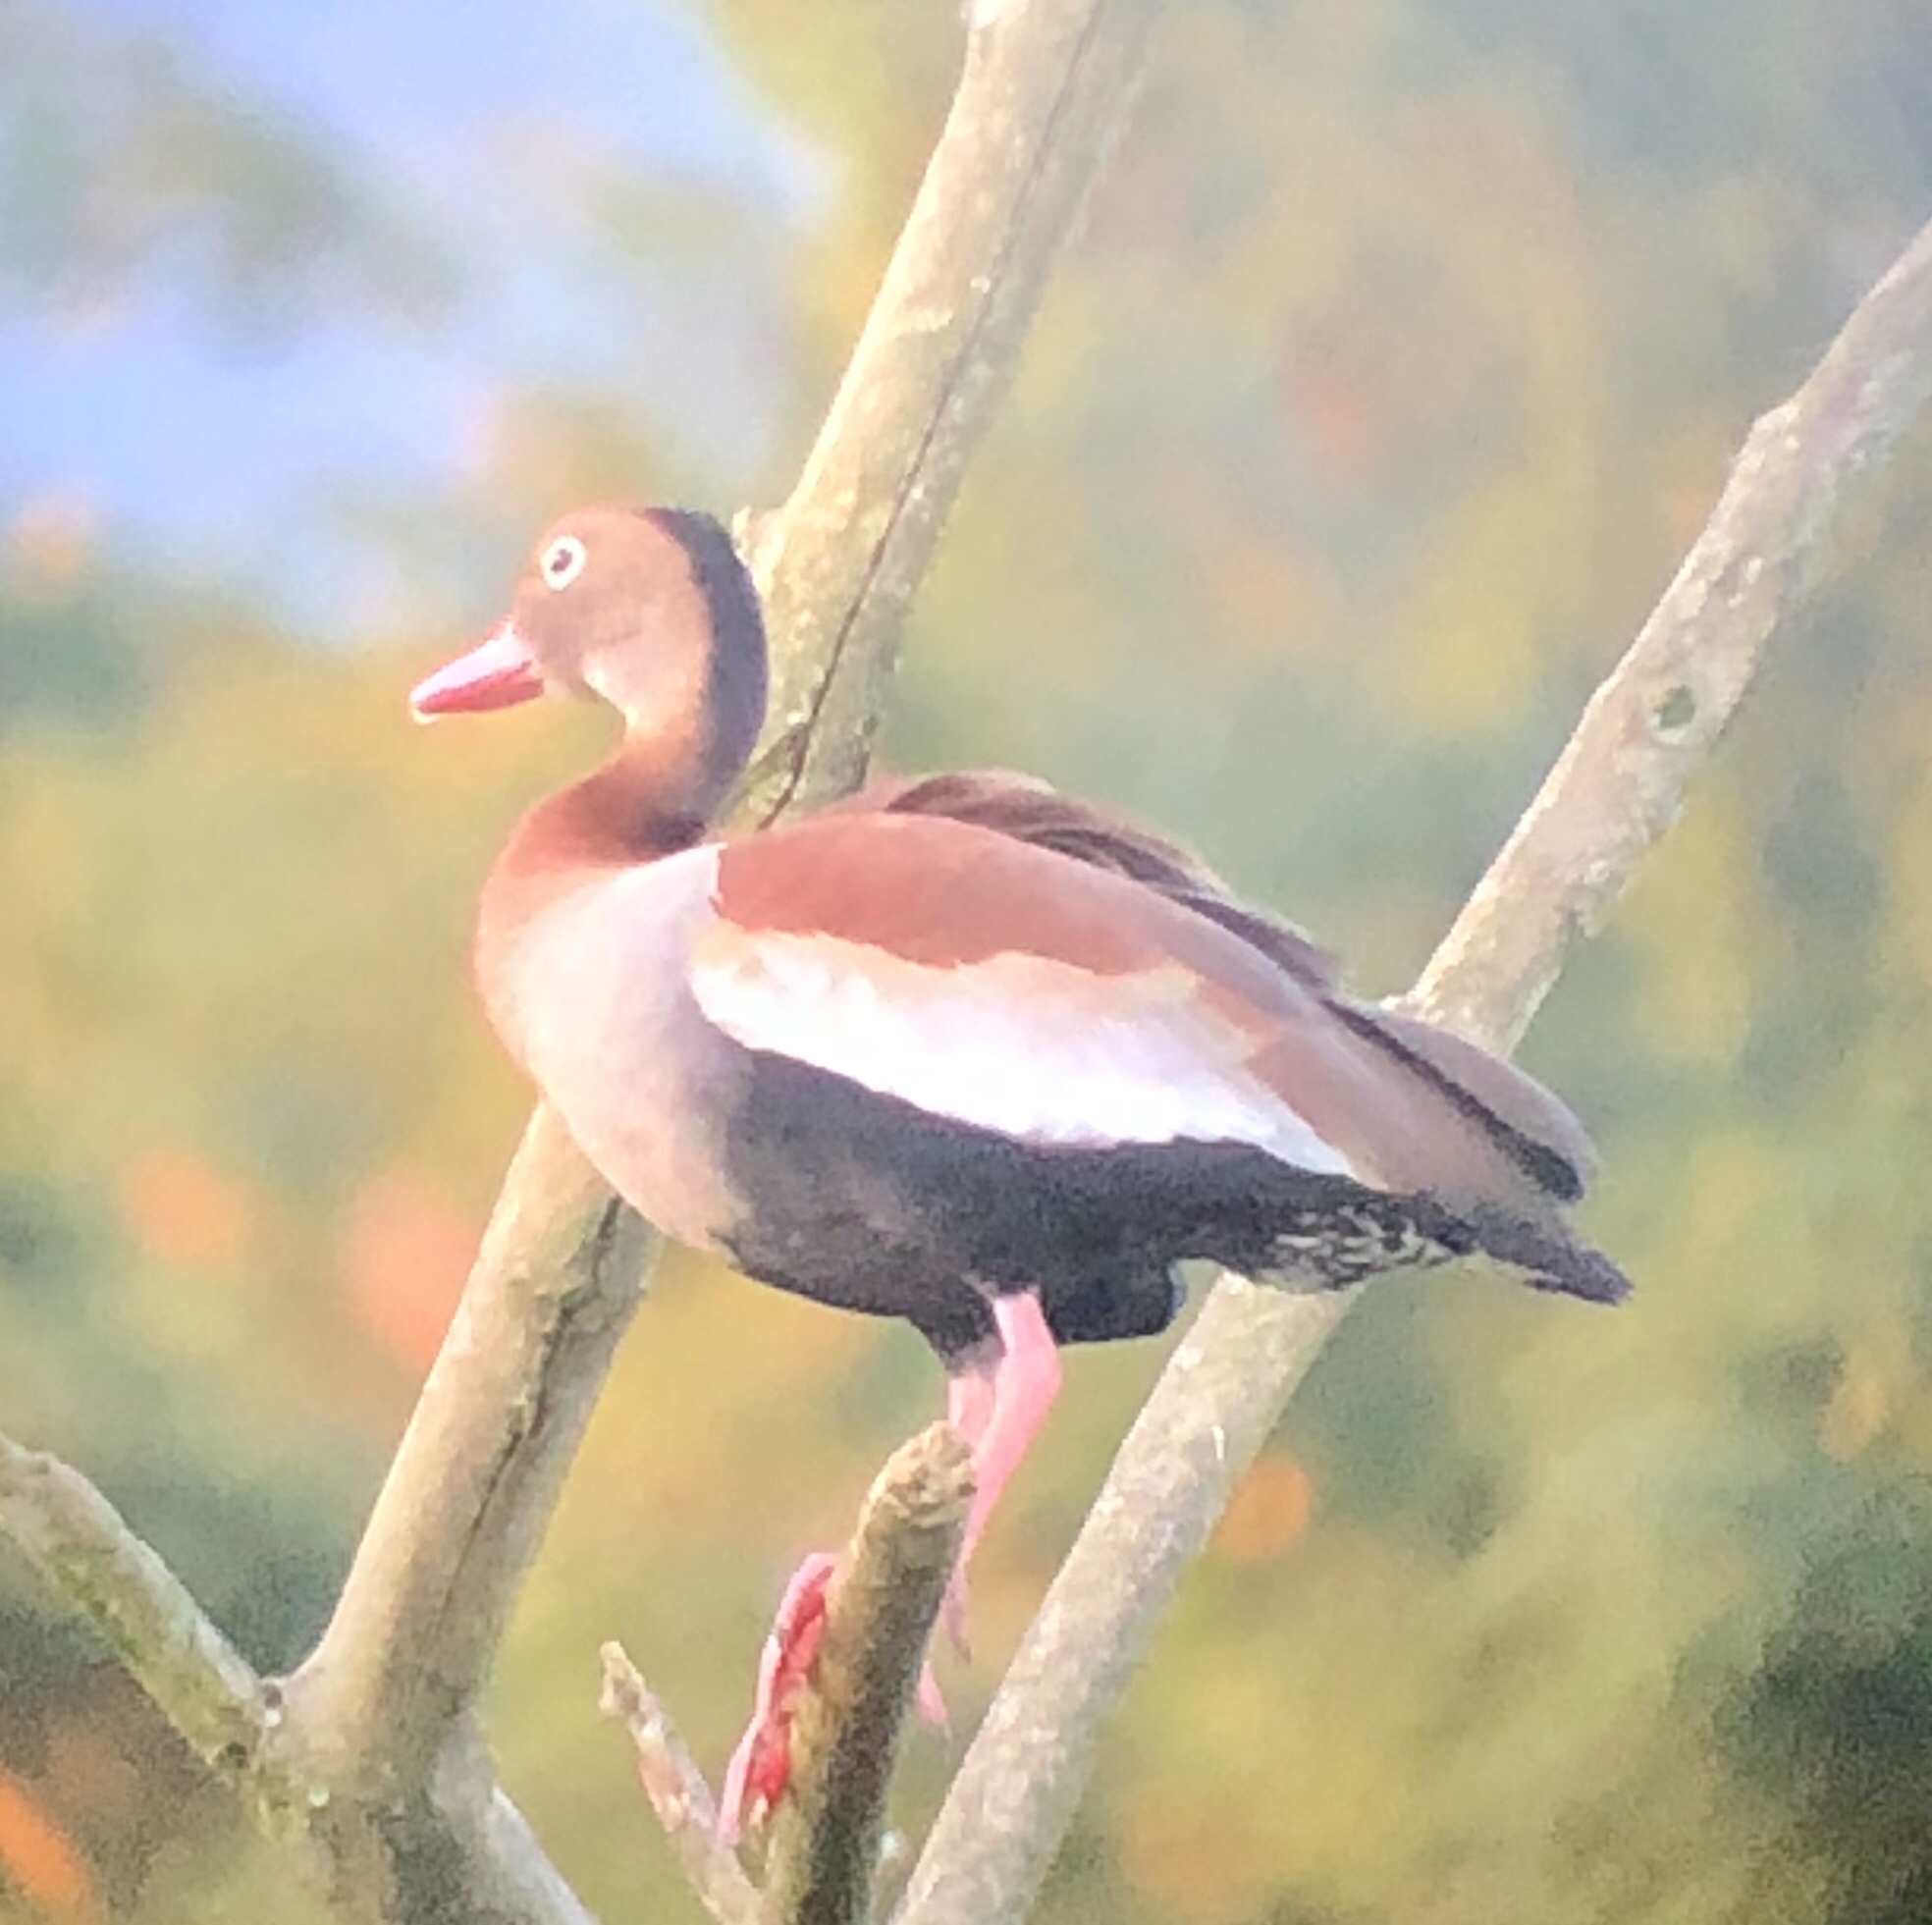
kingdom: Animalia
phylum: Chordata
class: Aves
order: Anseriformes
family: Anatidae
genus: Dendrocygna
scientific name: Dendrocygna autumnalis
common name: Black-bellied whistling duck
